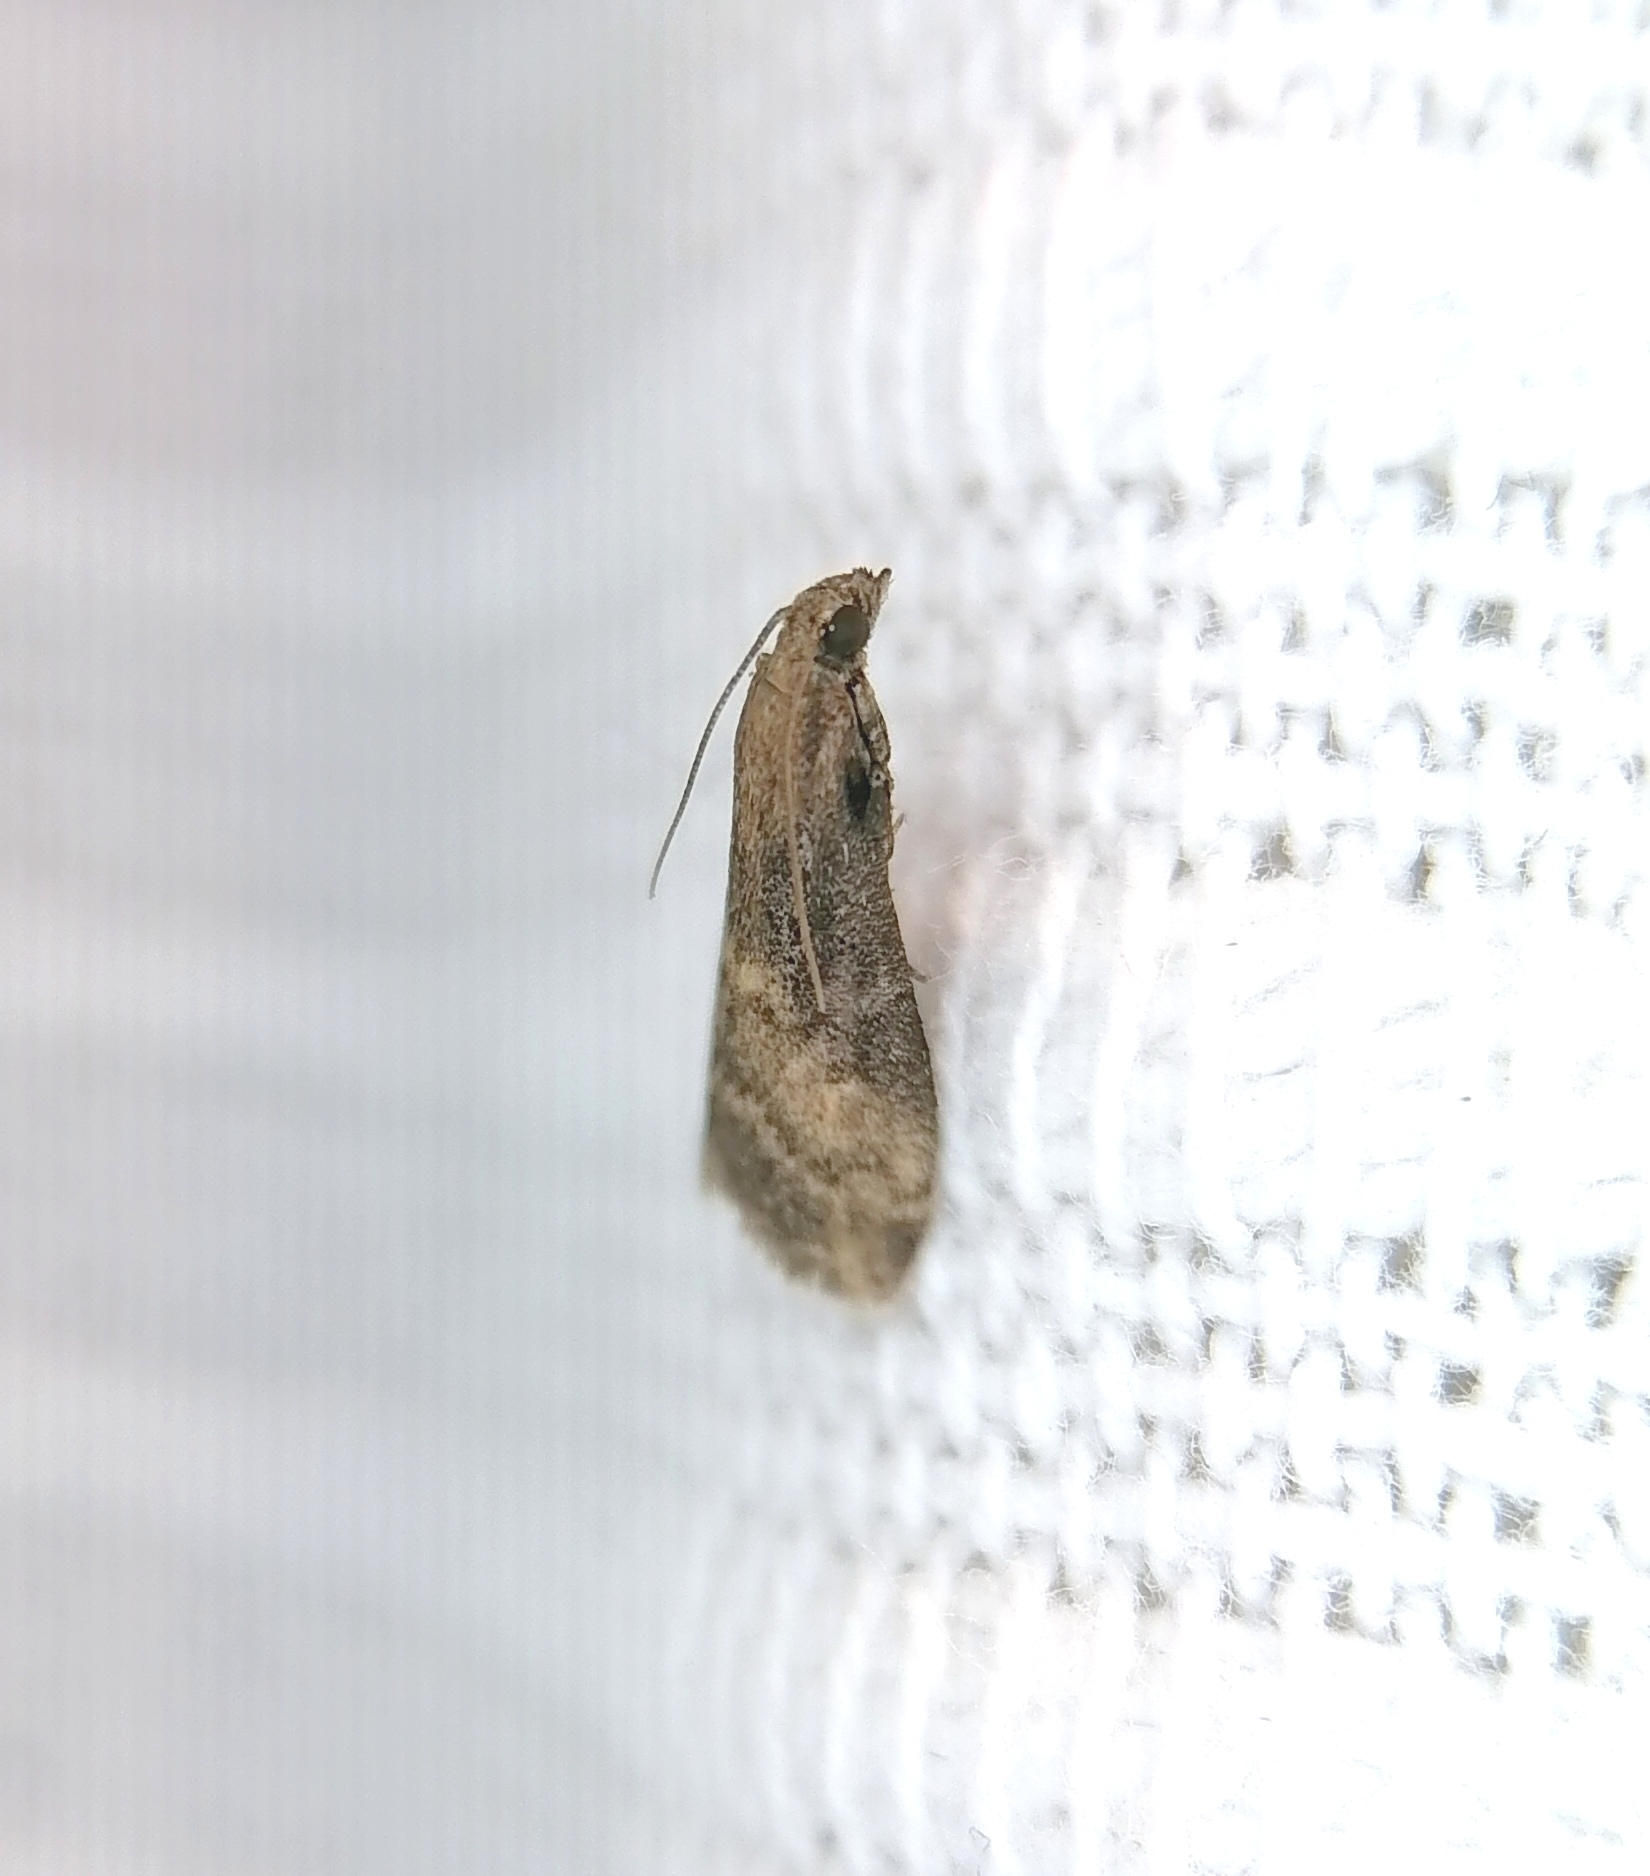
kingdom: Animalia
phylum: Arthropoda
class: Insecta
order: Lepidoptera
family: Pyralidae
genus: Euzophera
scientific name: Euzophera fuliginosella
